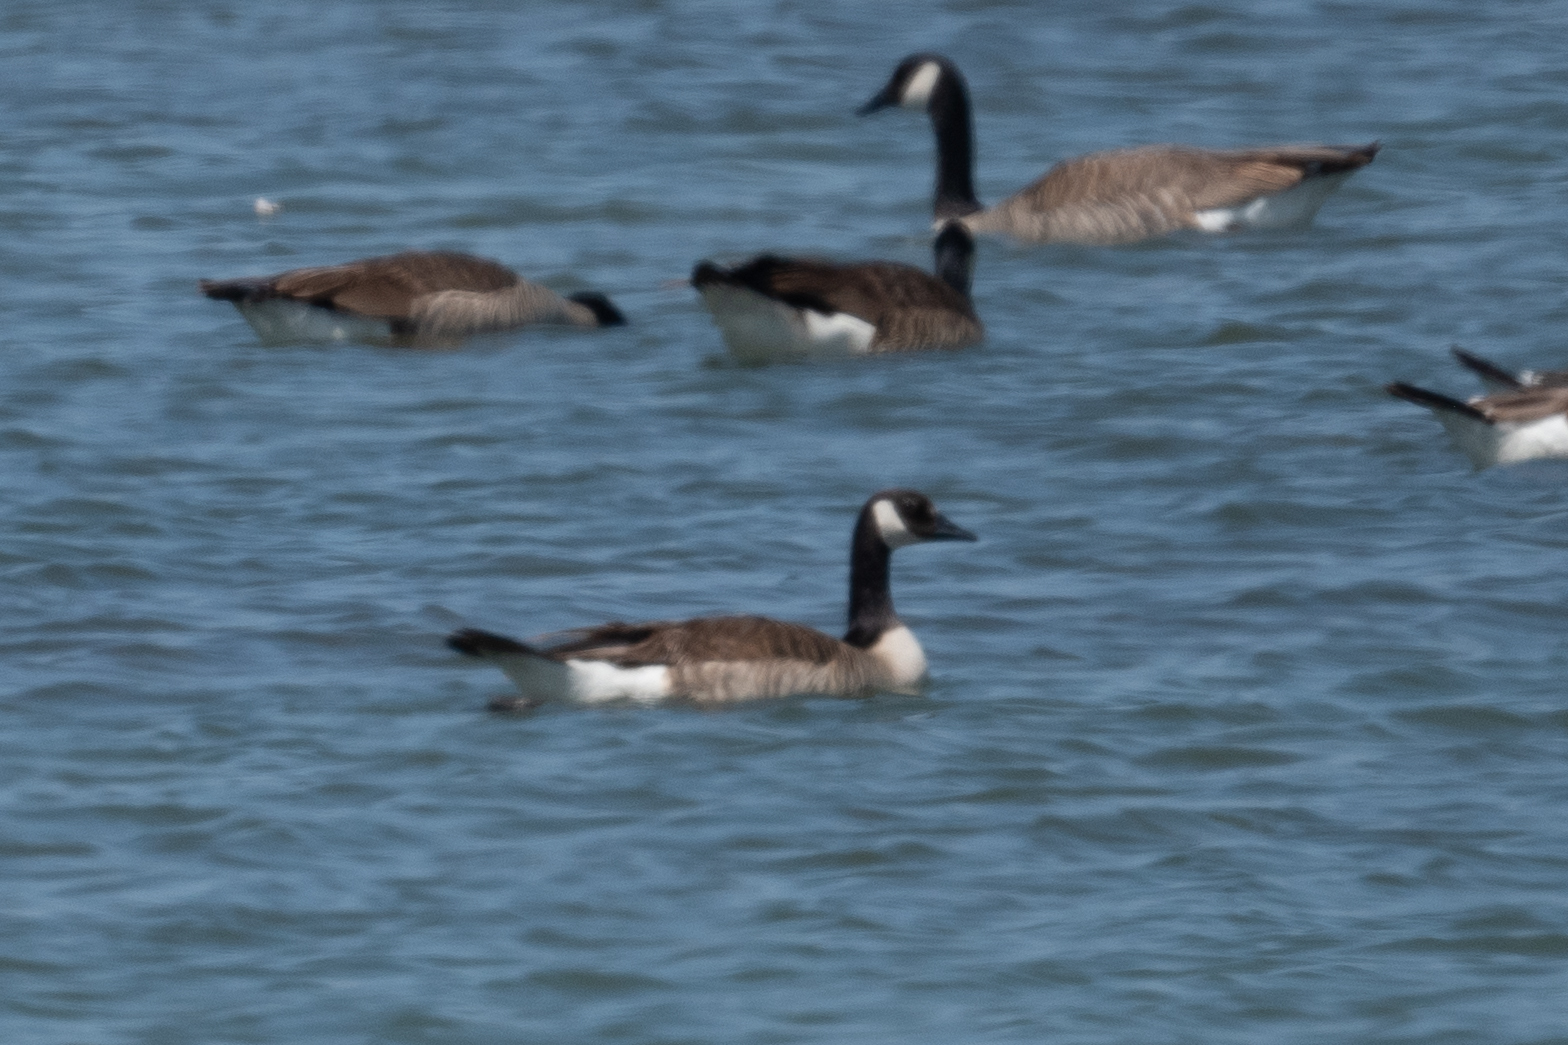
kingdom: Animalia
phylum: Chordata
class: Aves
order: Anseriformes
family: Anatidae
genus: Branta
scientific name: Branta canadensis
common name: Canada goose
